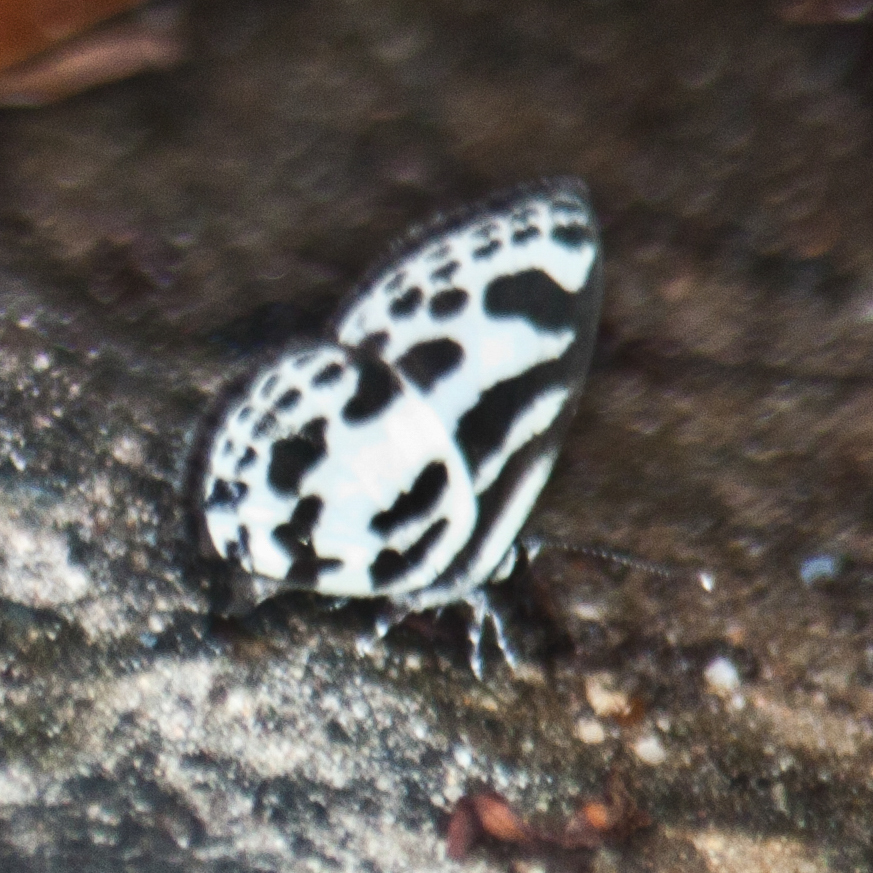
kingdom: Animalia
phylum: Arthropoda
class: Insecta
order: Lepidoptera
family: Lycaenidae
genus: Discolampa
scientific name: Discolampa ethion
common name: Banded blue pierrot
